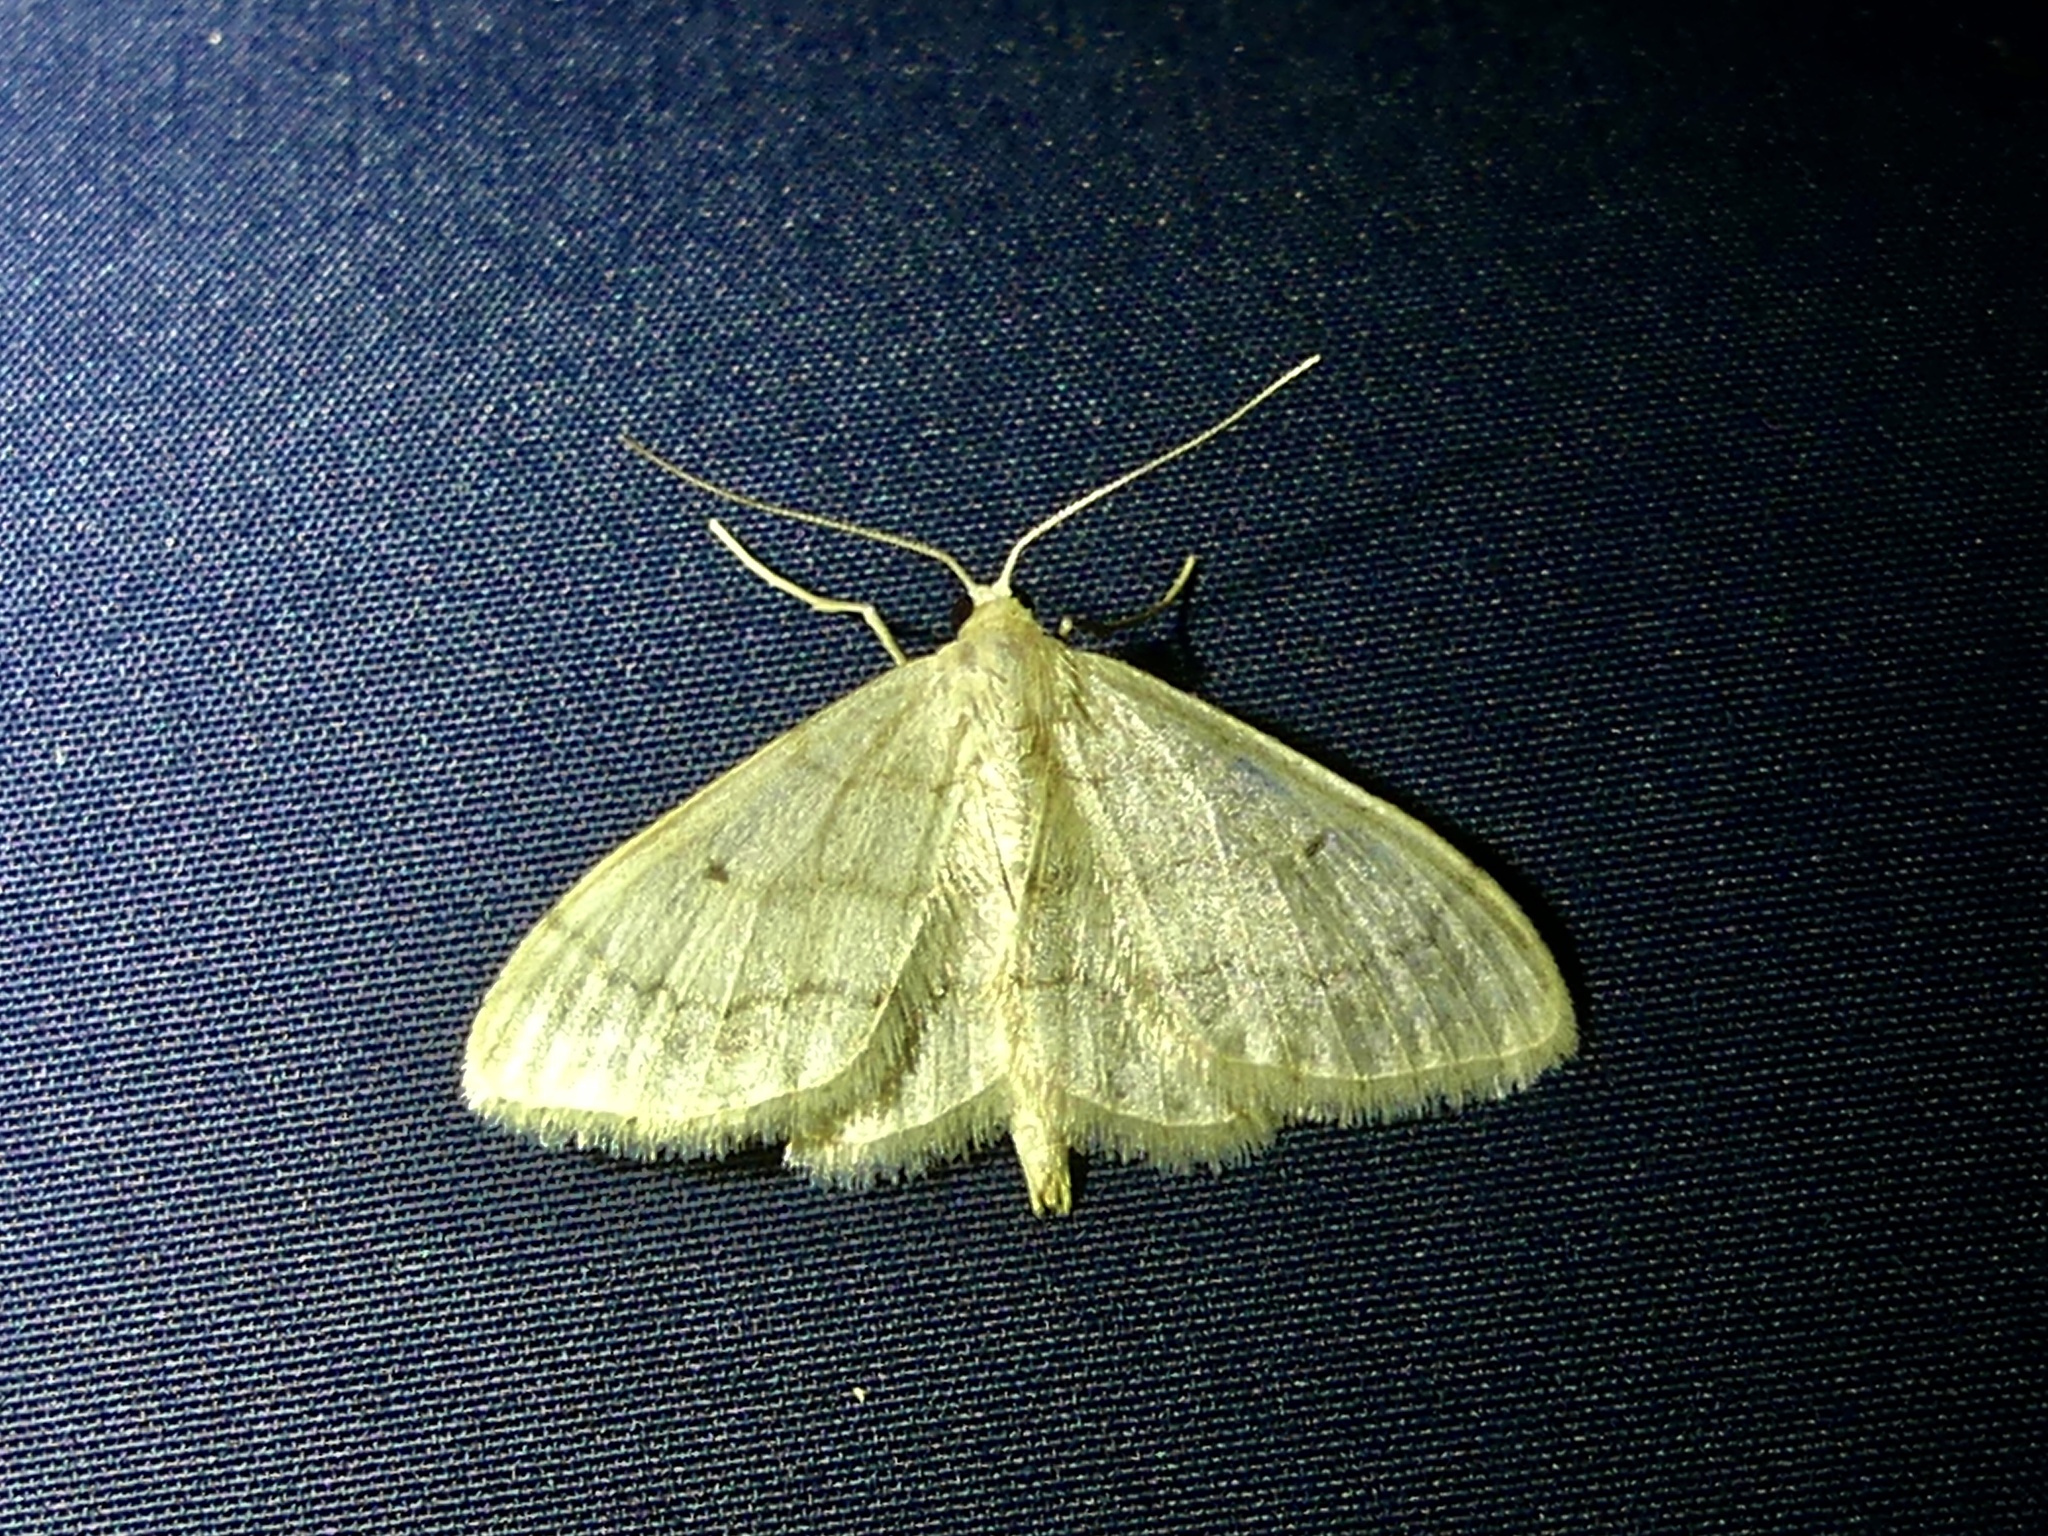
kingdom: Animalia
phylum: Arthropoda
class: Insecta
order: Lepidoptera
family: Geometridae
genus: Idaea
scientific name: Idaea biselata
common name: Small fan-footed wave
